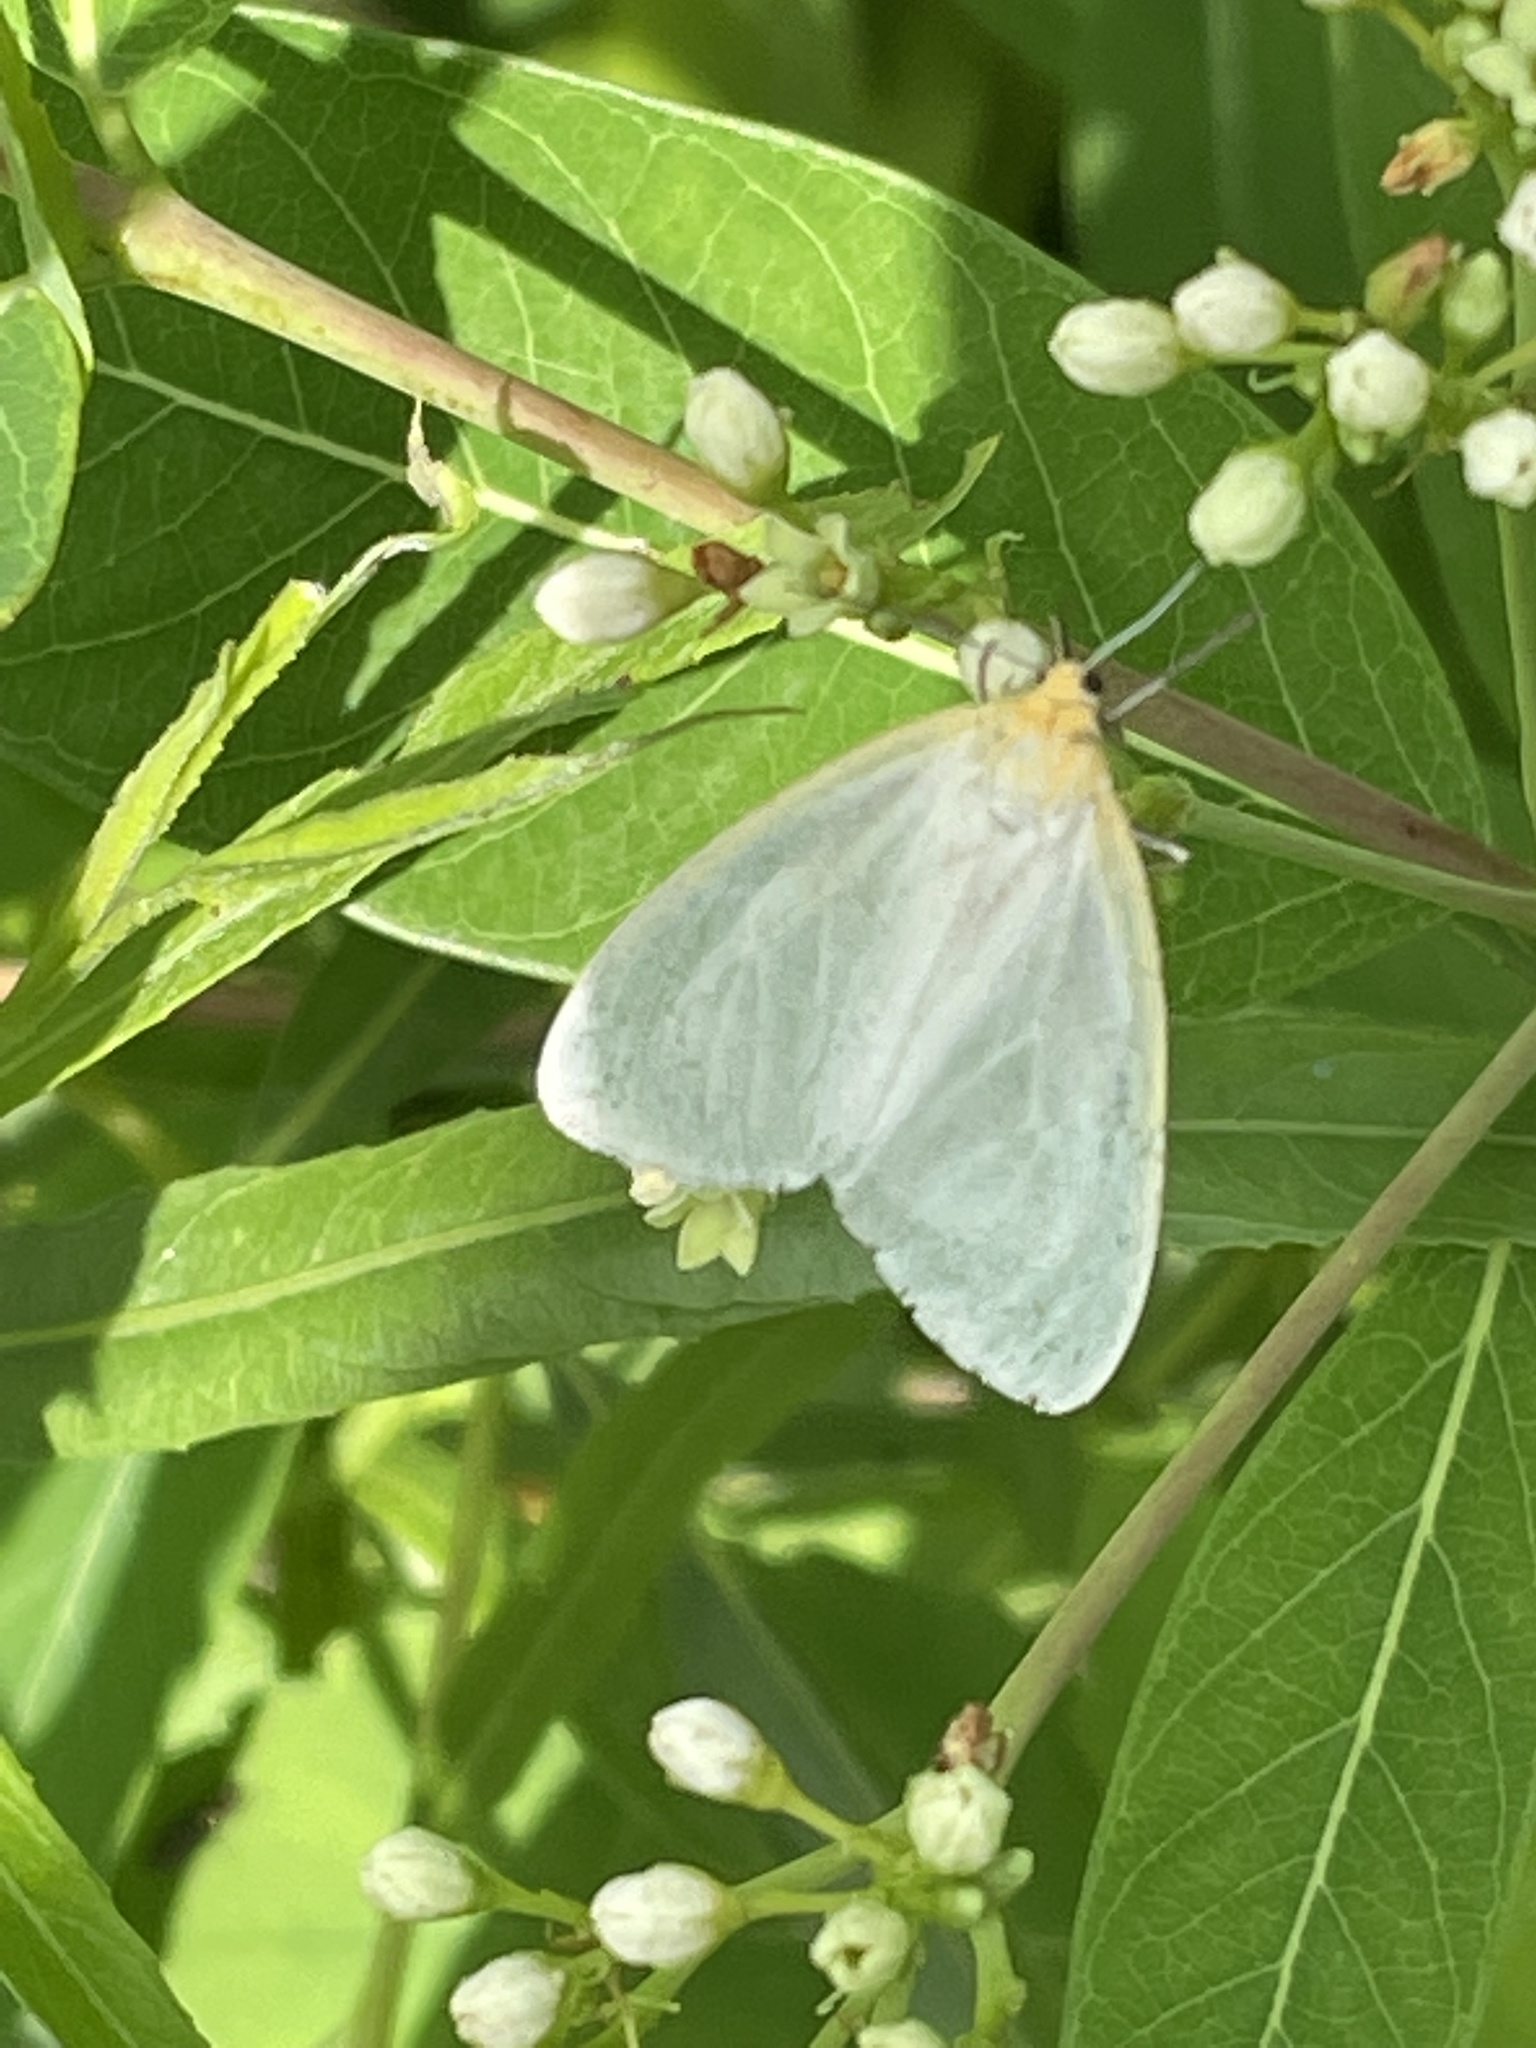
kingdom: Animalia
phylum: Arthropoda
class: Insecta
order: Lepidoptera
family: Erebidae
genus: Cycnia
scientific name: Cycnia tenera
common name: Delicate cycnia moth
